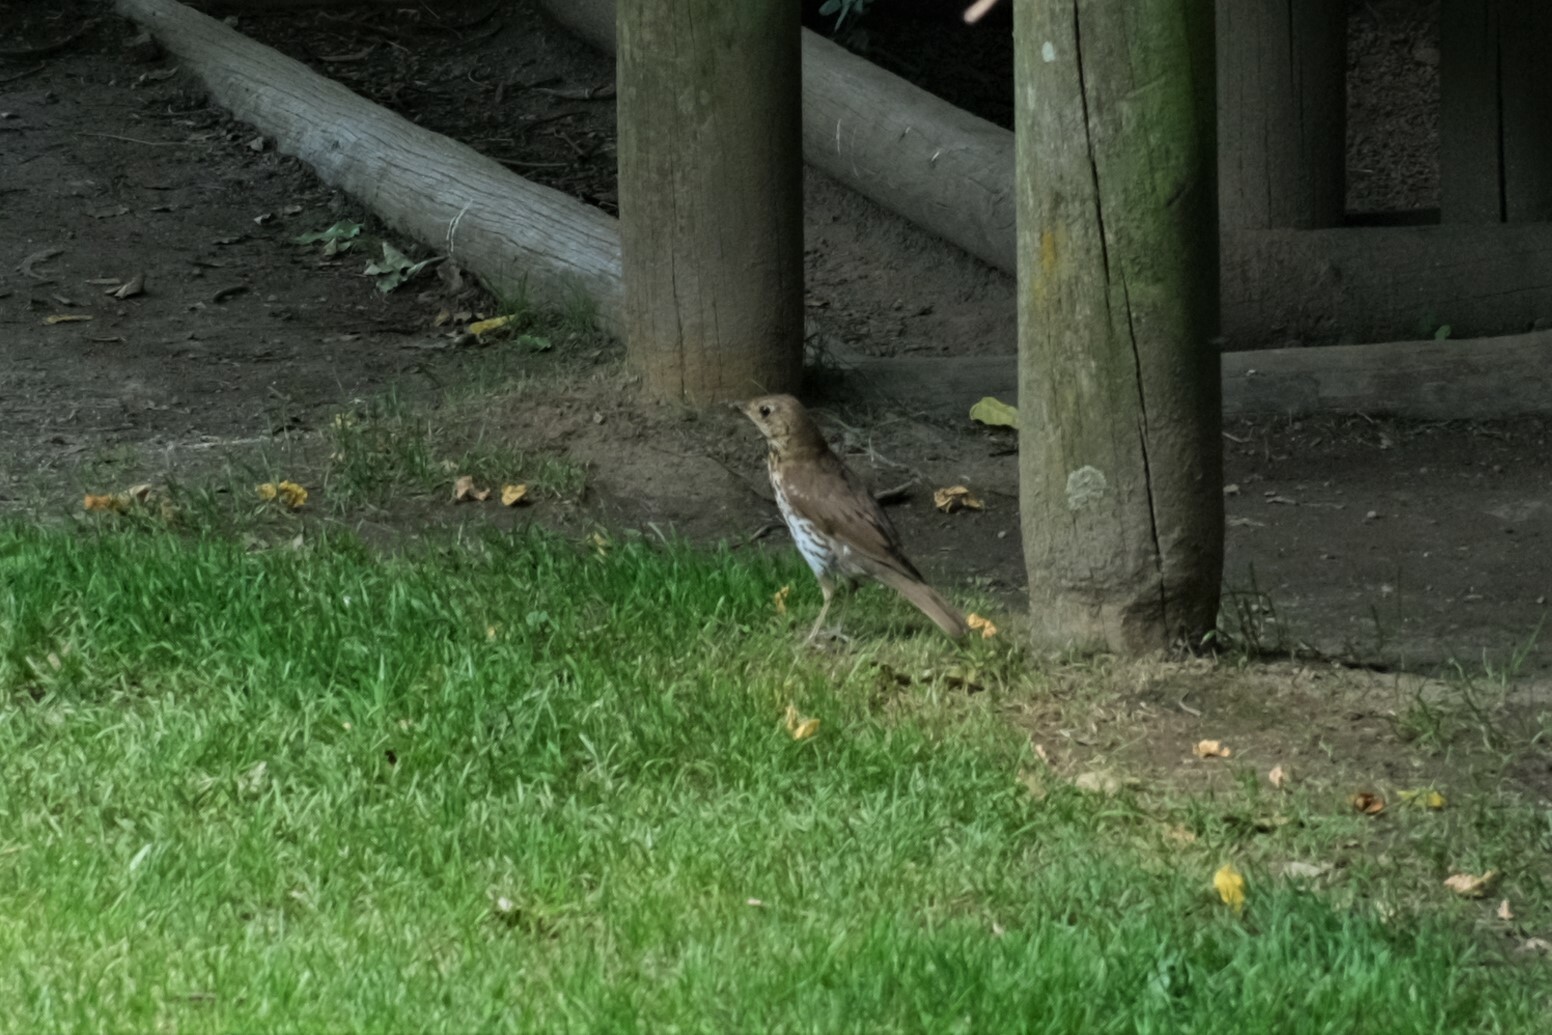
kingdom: Animalia
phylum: Chordata
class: Aves
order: Passeriformes
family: Turdidae
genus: Turdus
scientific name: Turdus philomelos
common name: Song thrush
